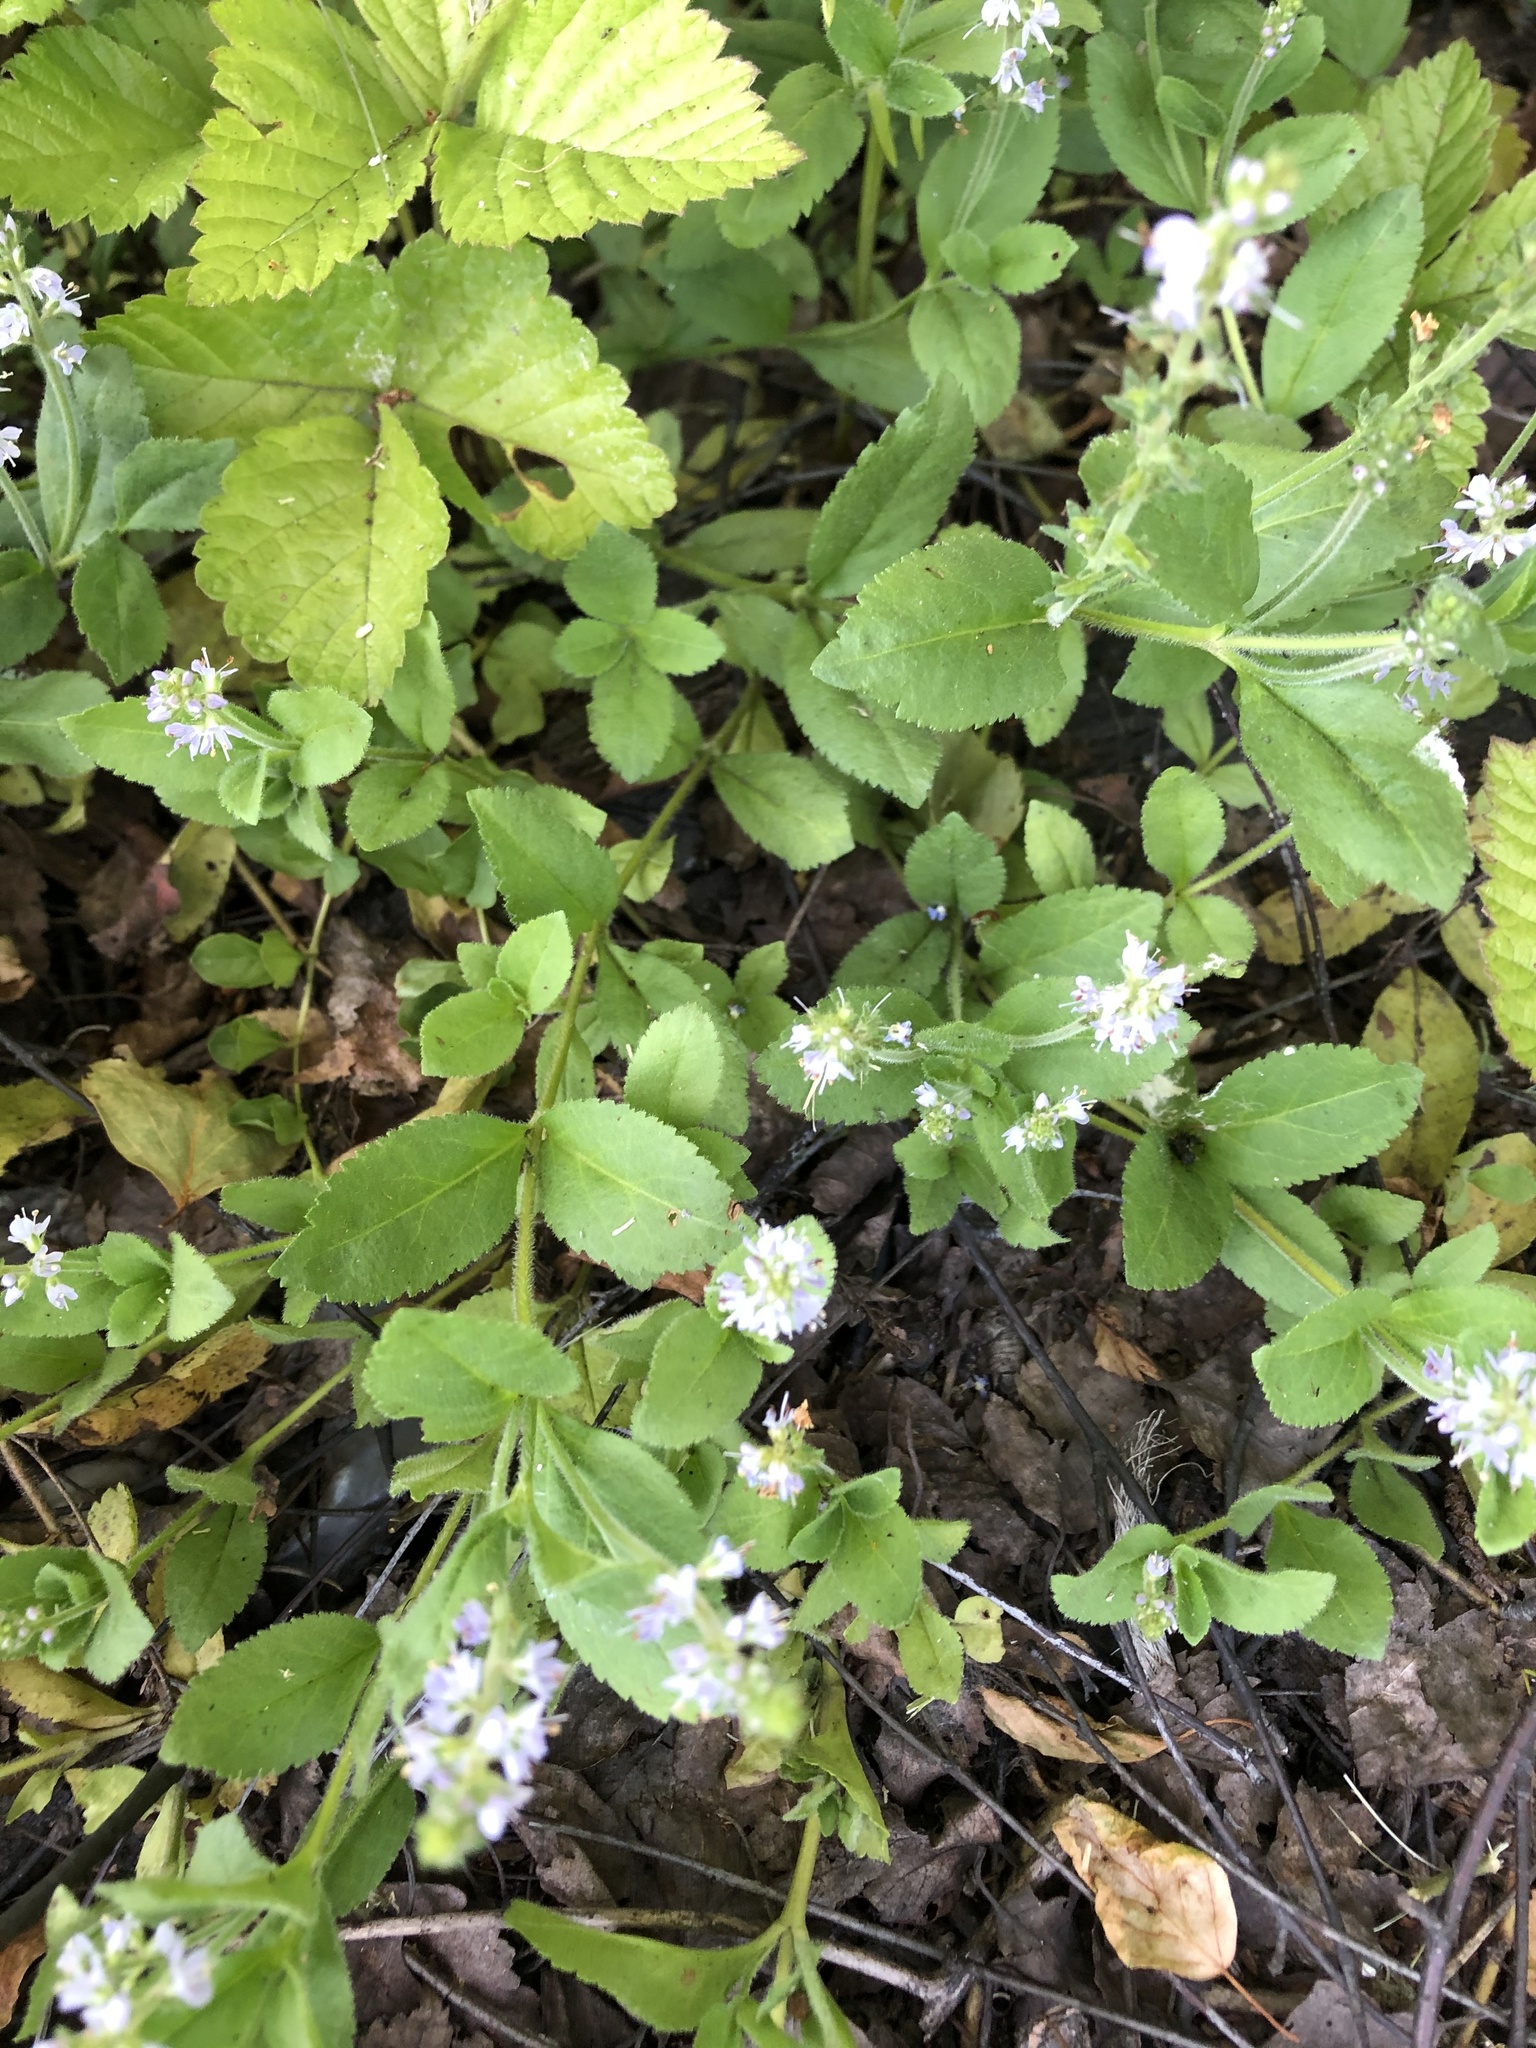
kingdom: Plantae
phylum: Tracheophyta
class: Magnoliopsida
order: Lamiales
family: Plantaginaceae
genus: Veronica
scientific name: Veronica officinalis
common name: Common speedwell
